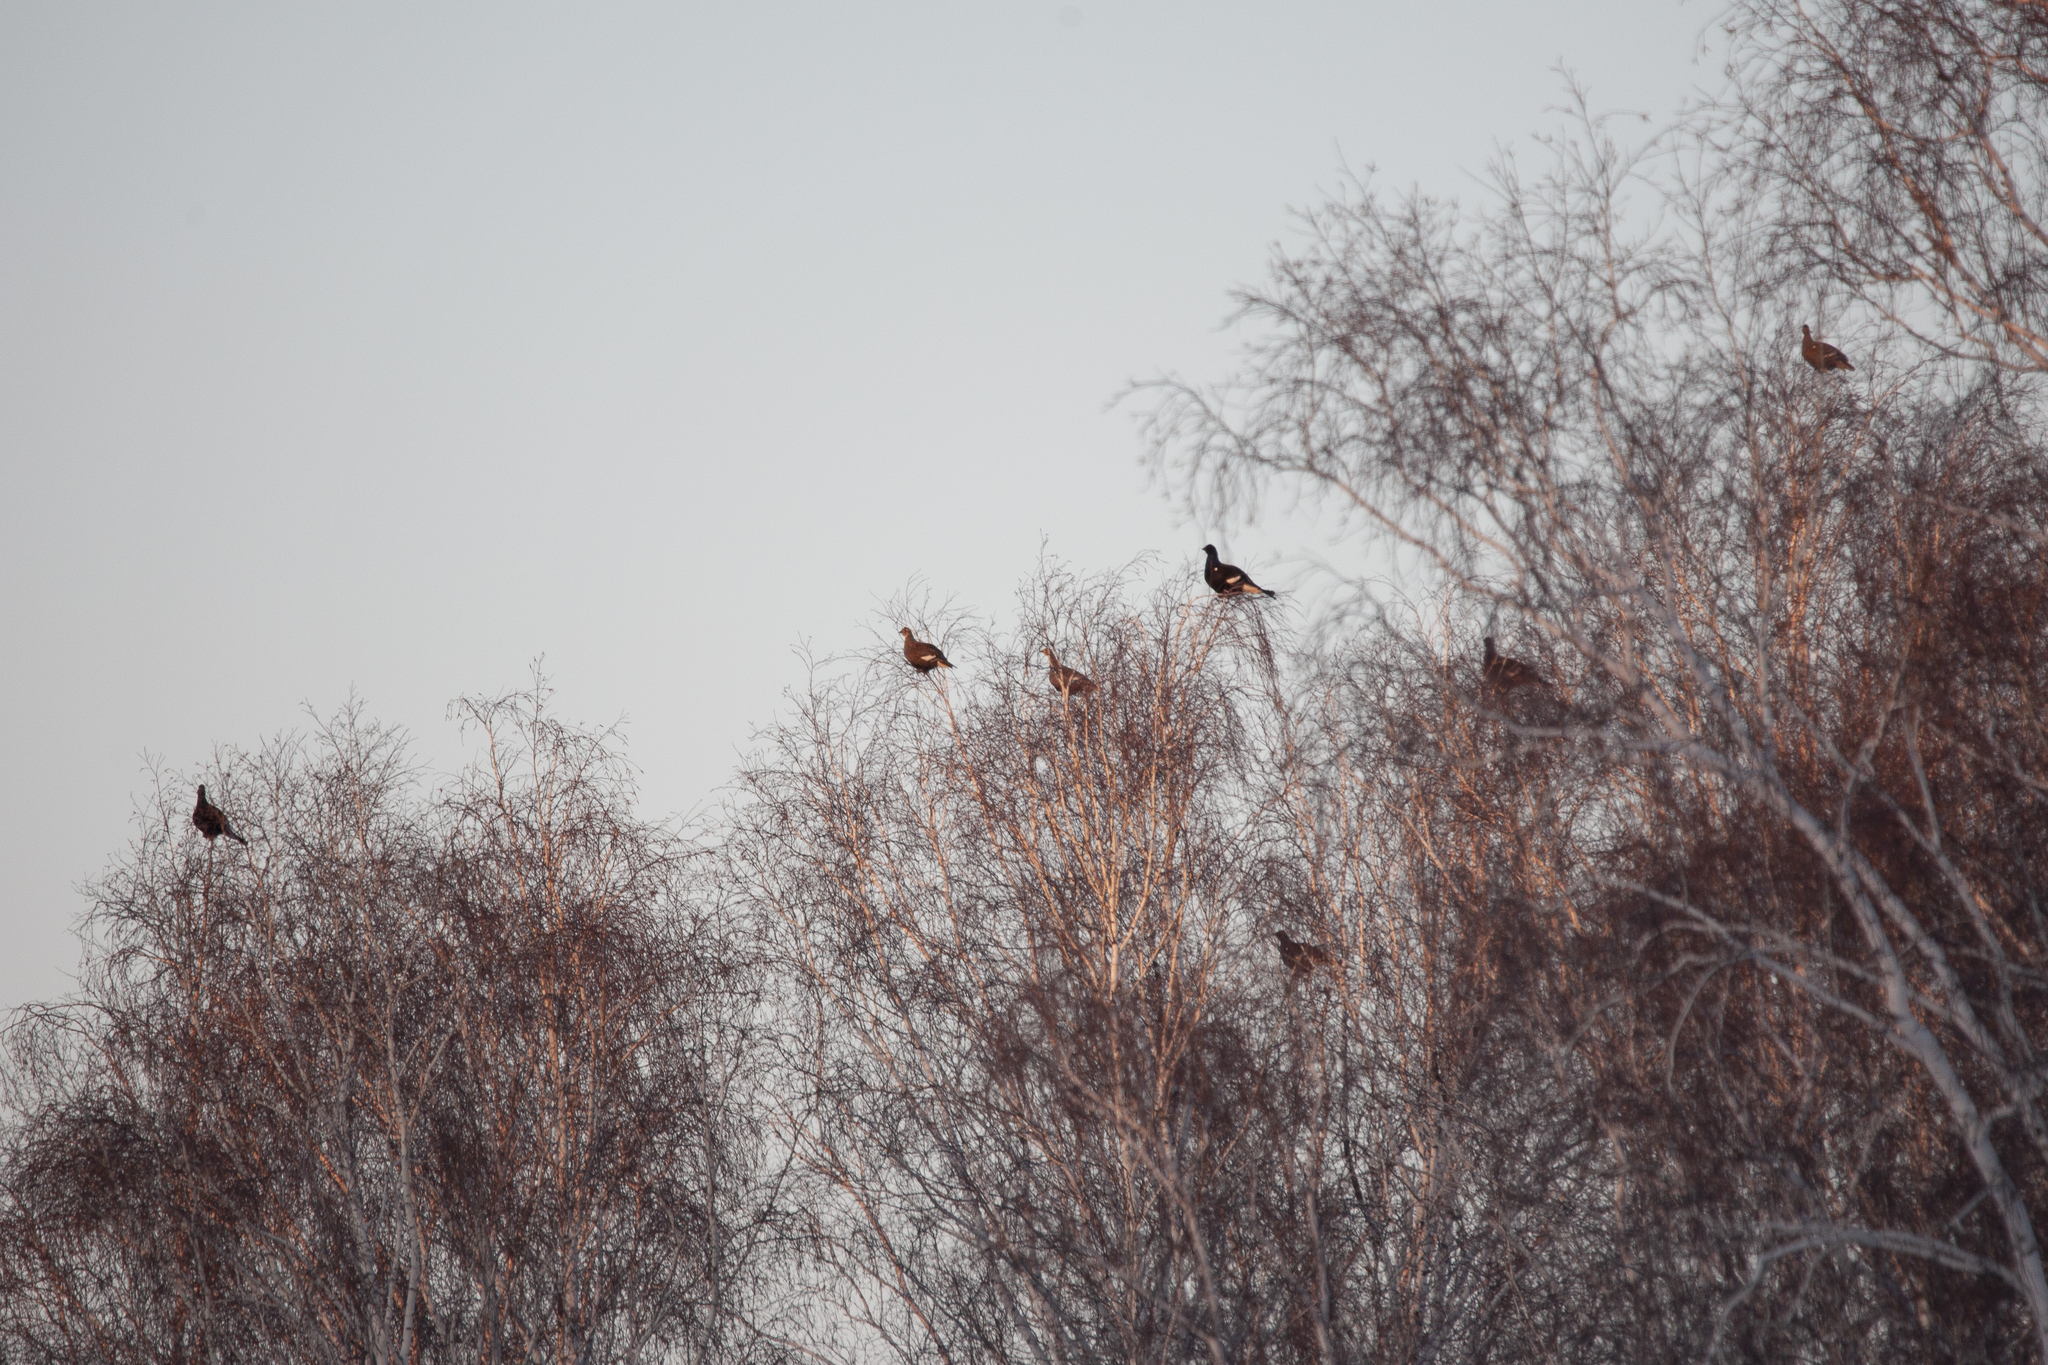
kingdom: Animalia
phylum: Chordata
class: Aves
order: Galliformes
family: Phasianidae
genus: Lyrurus
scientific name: Lyrurus tetrix
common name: Black grouse
